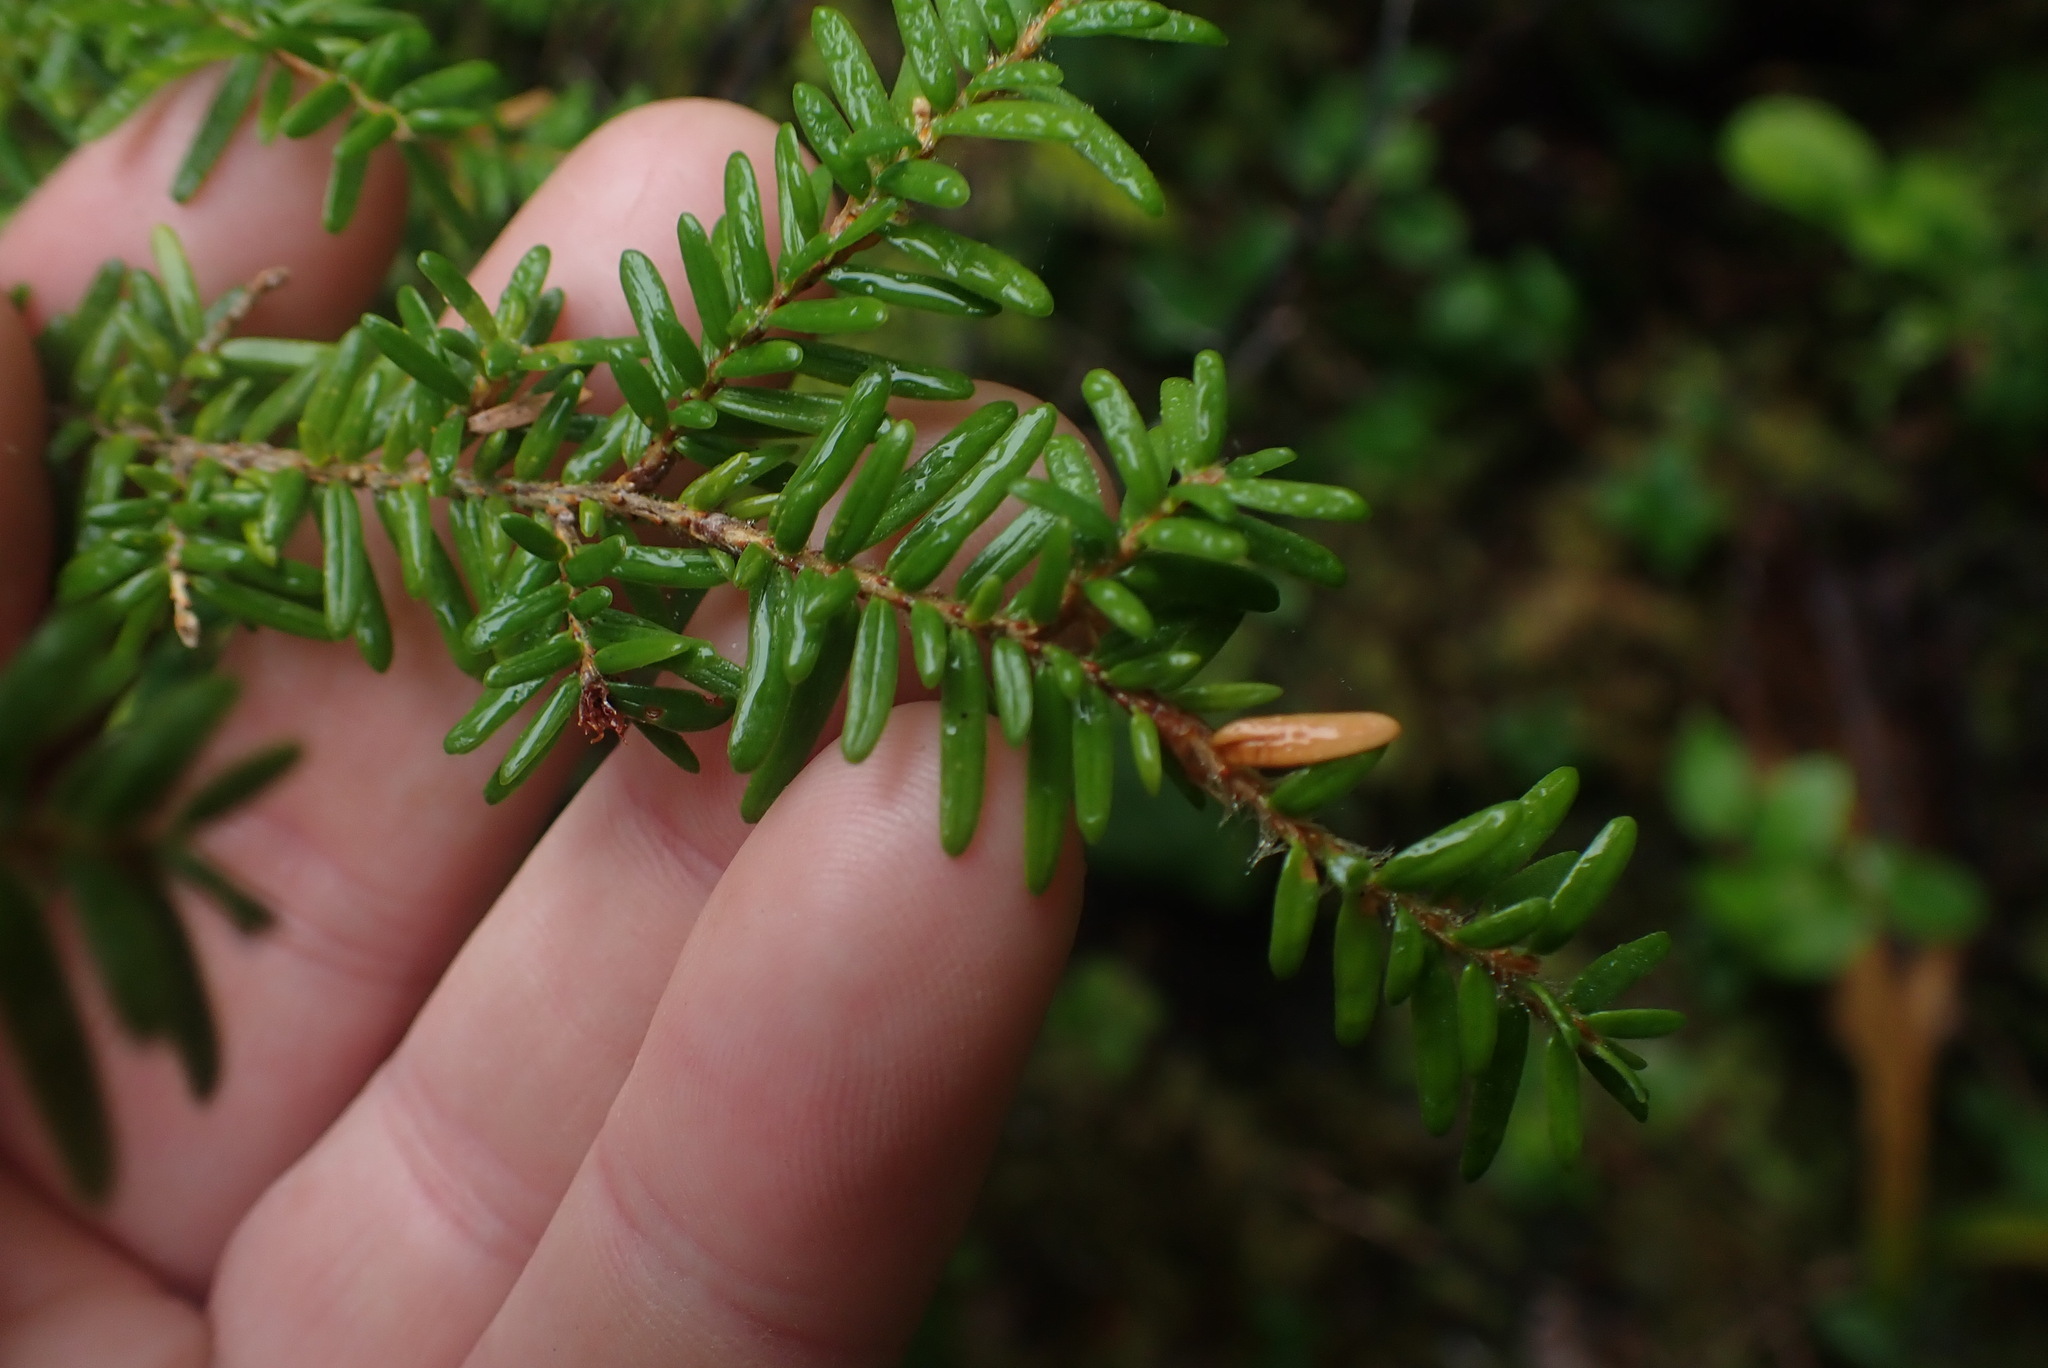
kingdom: Plantae
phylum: Tracheophyta
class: Pinopsida
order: Pinales
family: Pinaceae
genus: Tsuga
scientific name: Tsuga heterophylla
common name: Western hemlock
